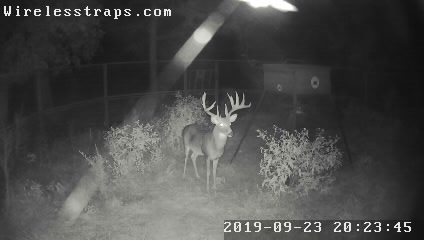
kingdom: Animalia
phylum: Chordata
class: Mammalia
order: Artiodactyla
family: Cervidae
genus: Odocoileus
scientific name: Odocoileus virginianus
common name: White-tailed deer
